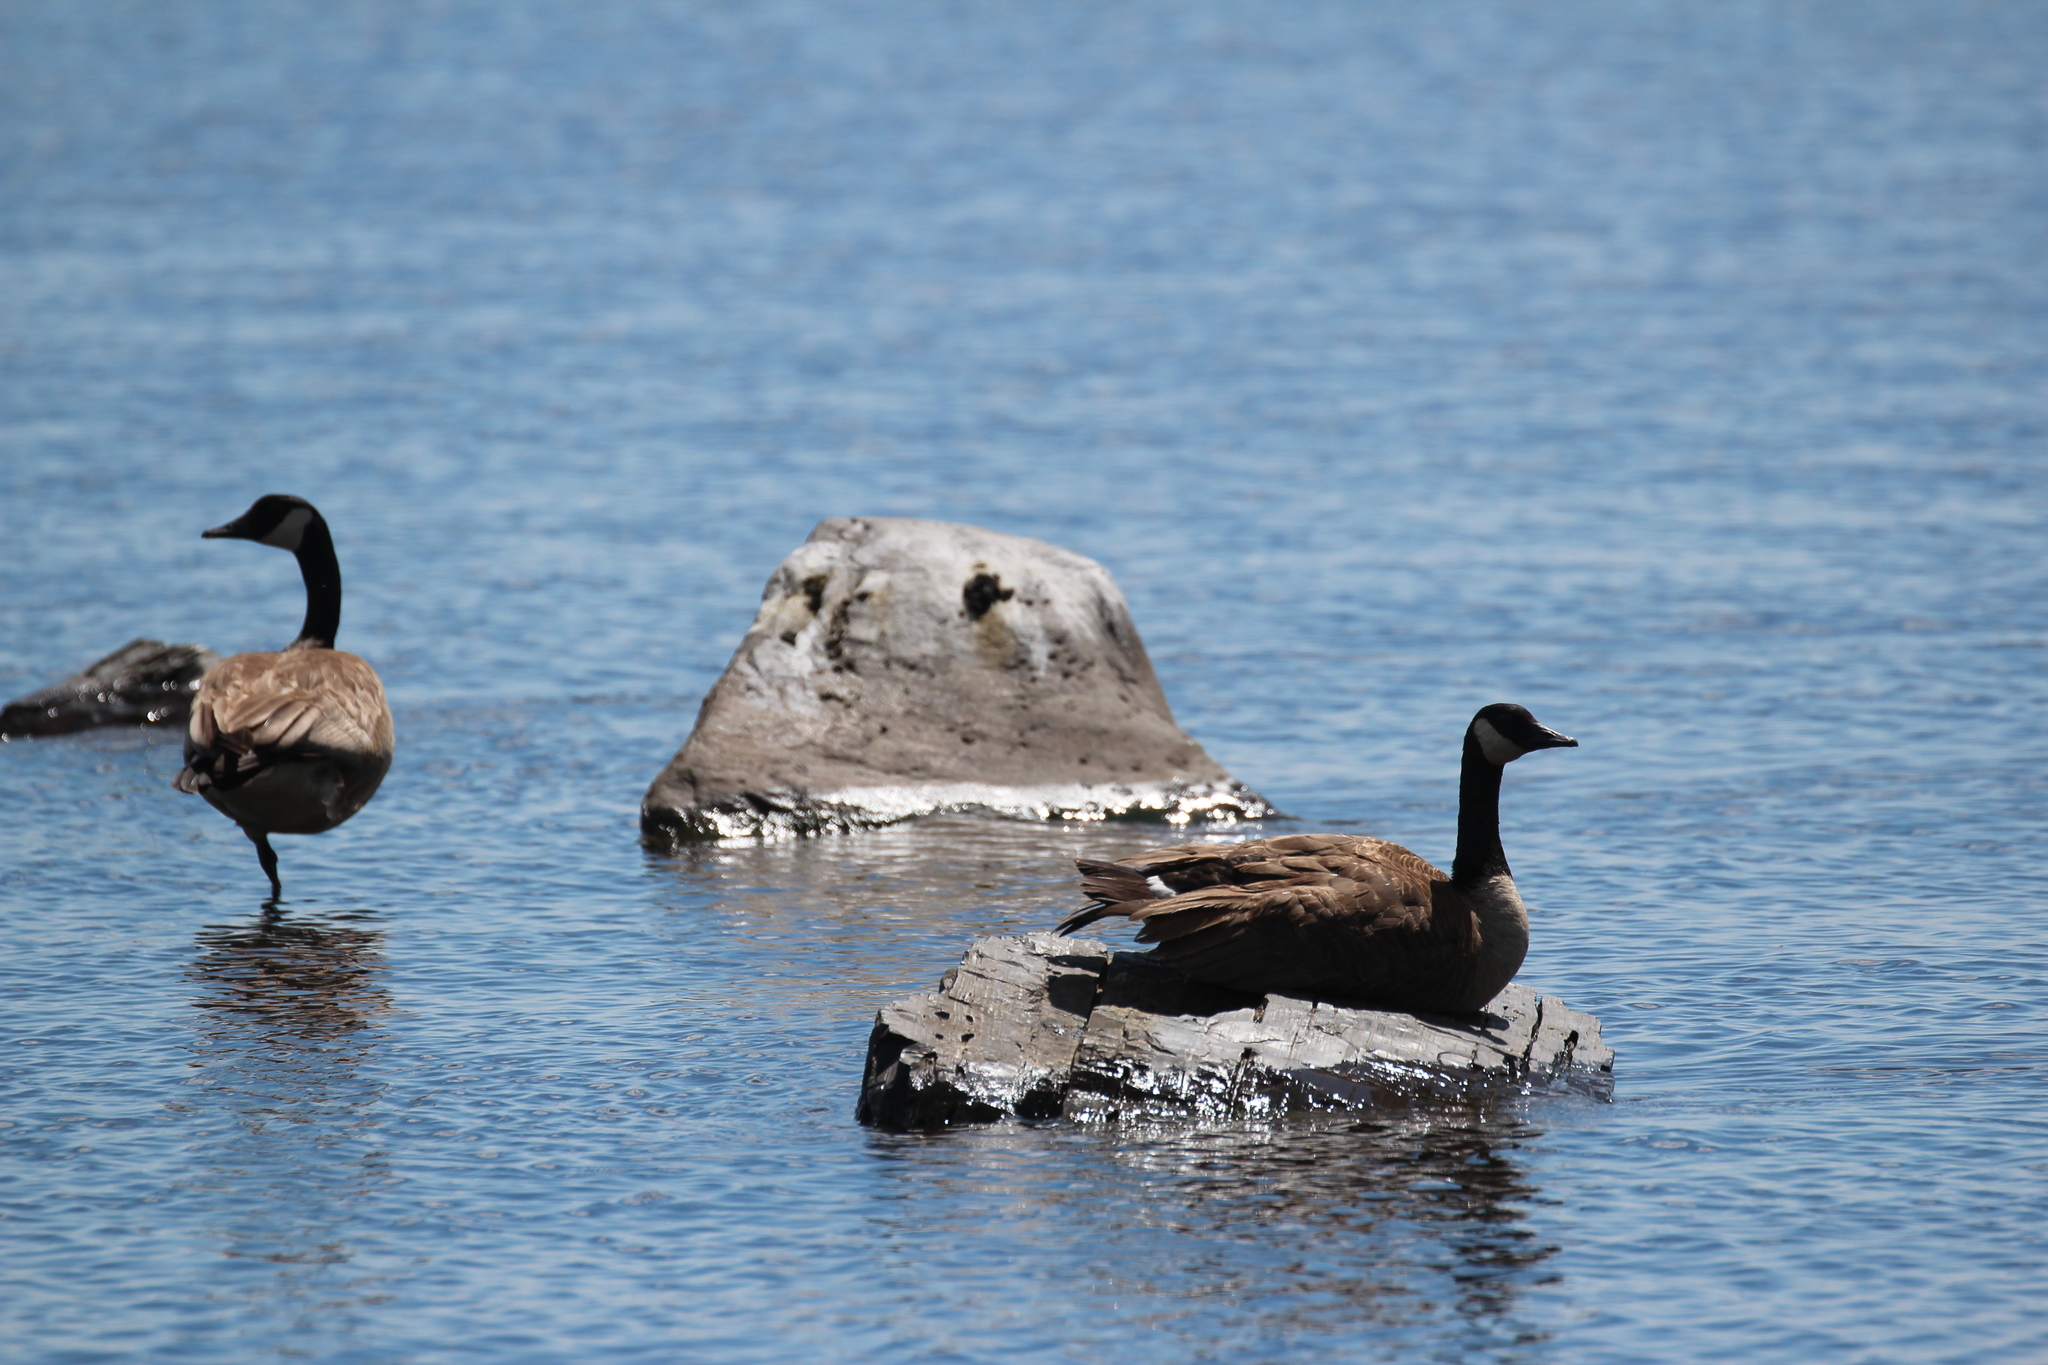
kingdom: Animalia
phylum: Chordata
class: Aves
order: Anseriformes
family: Anatidae
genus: Branta
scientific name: Branta canadensis
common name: Canada goose
